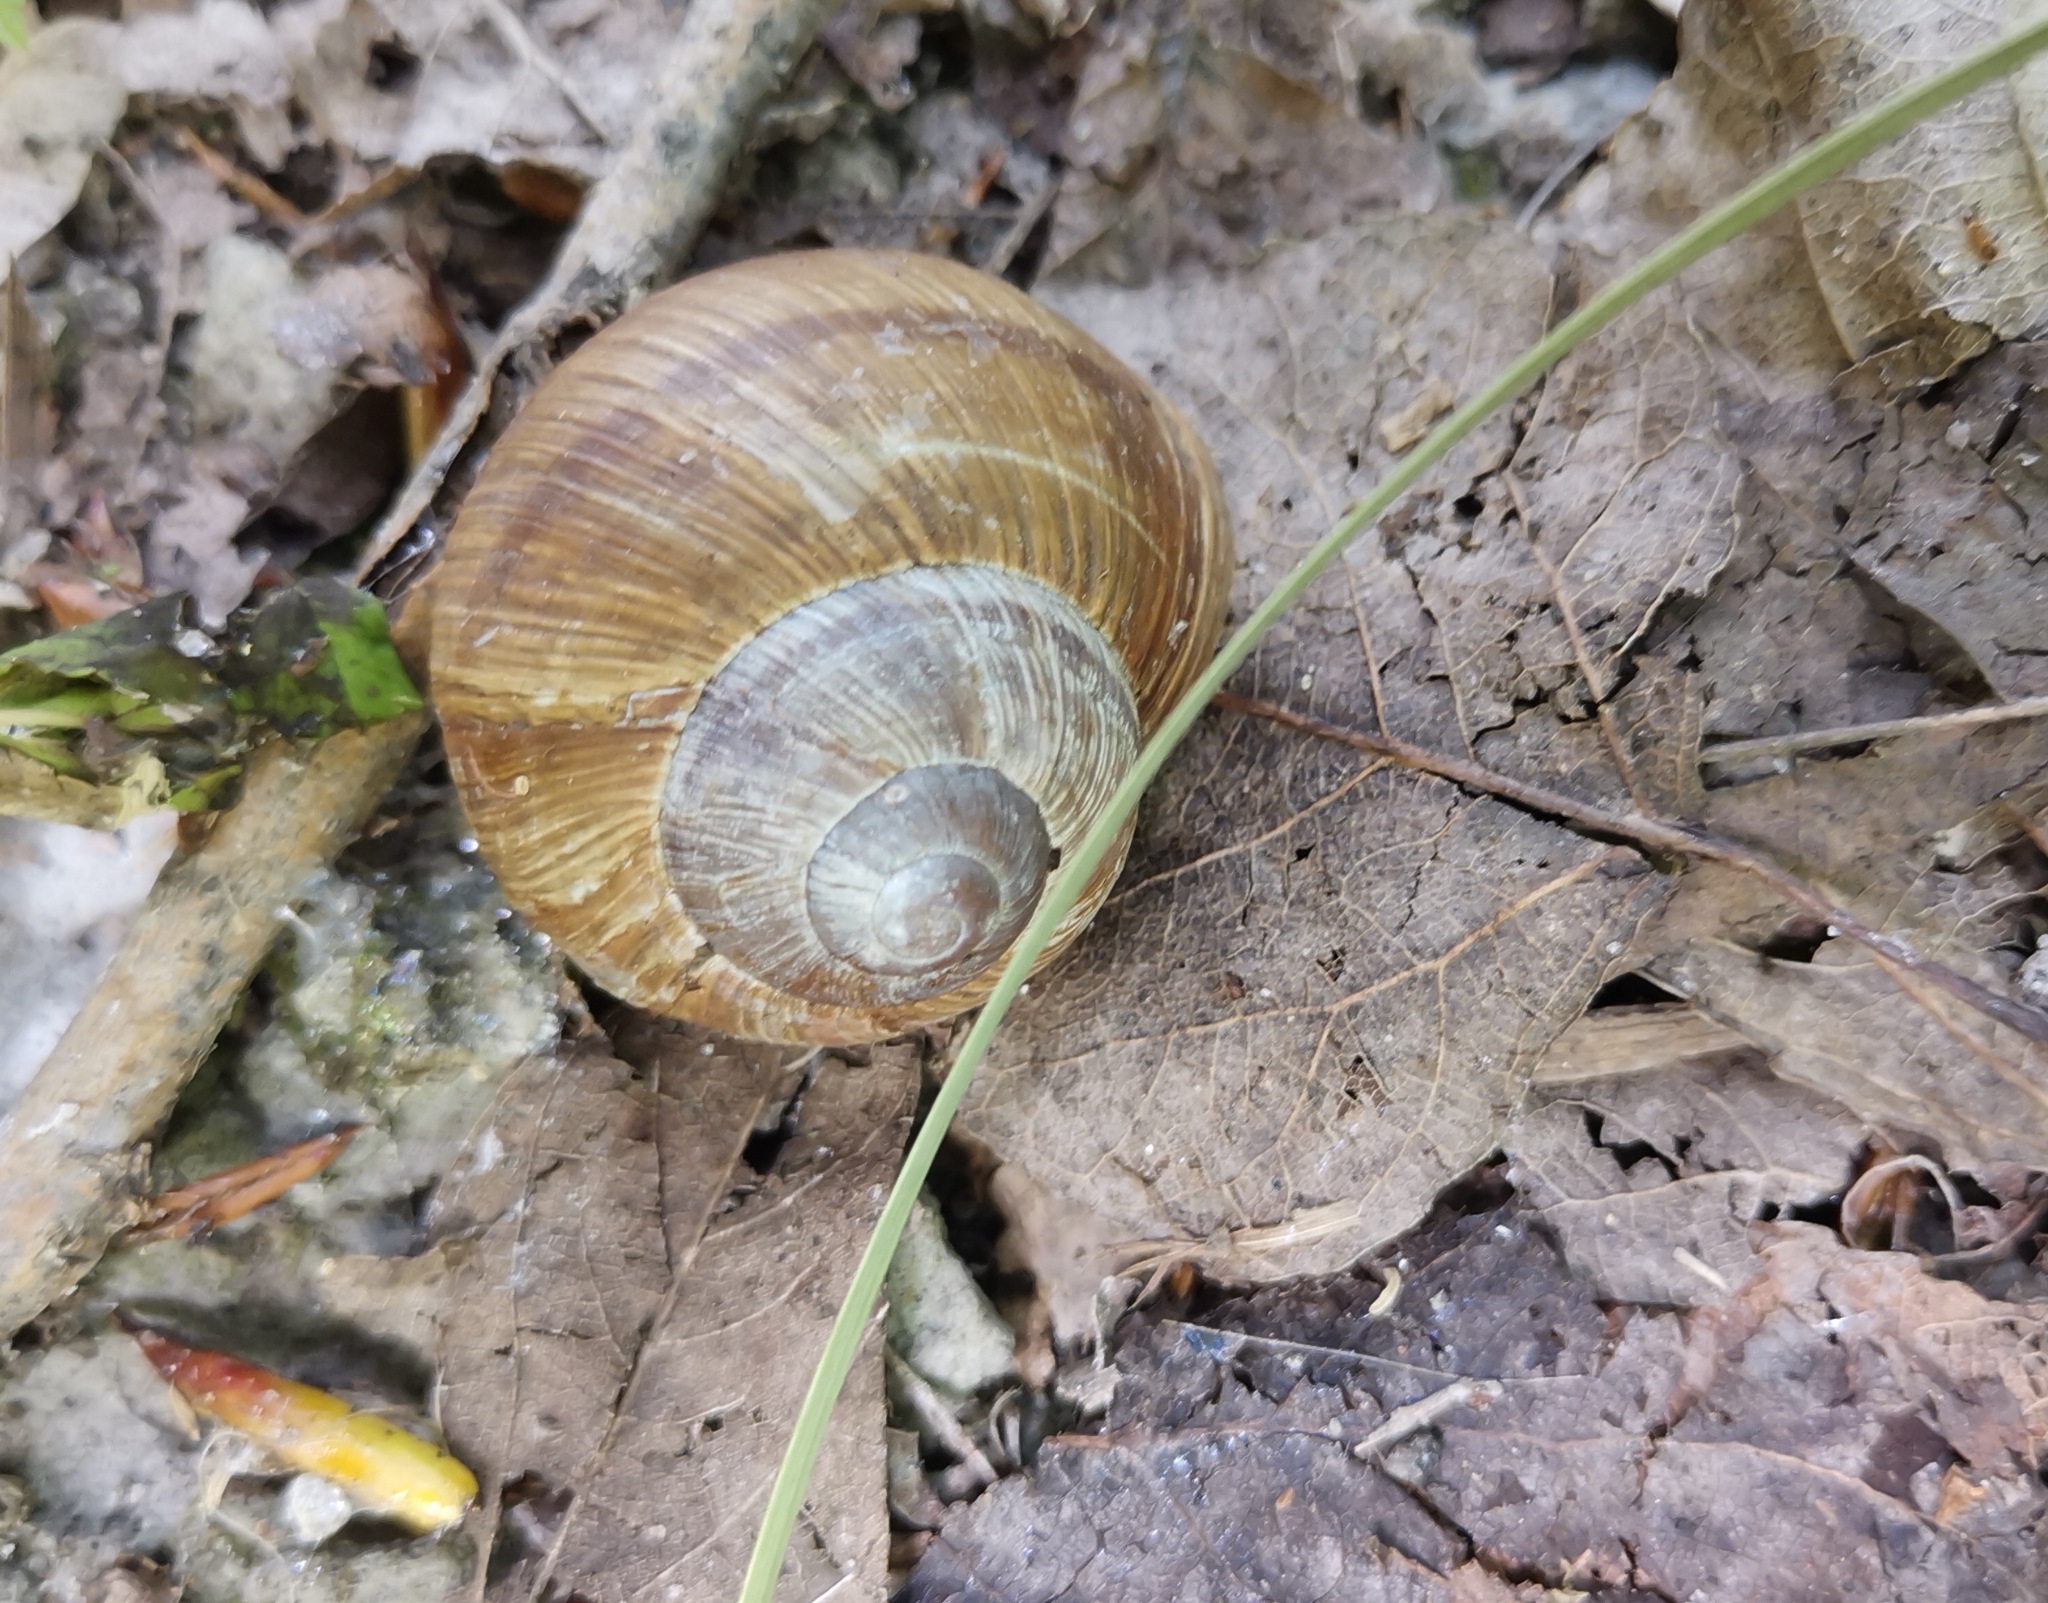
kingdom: Animalia
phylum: Mollusca
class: Gastropoda
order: Stylommatophora
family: Helicidae
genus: Helix
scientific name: Helix pomatia
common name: Roman snail
